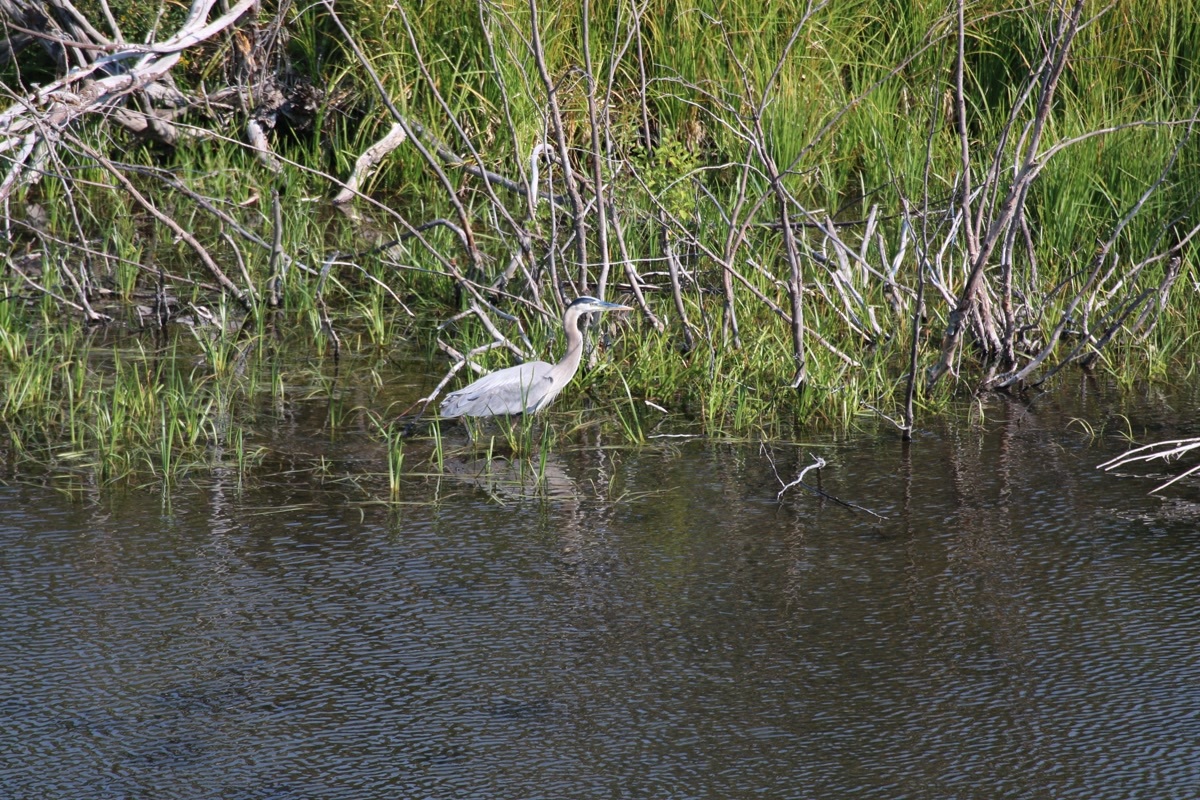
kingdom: Animalia
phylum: Chordata
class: Aves
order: Pelecaniformes
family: Ardeidae
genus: Ardea
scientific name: Ardea herodias
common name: Great blue heron
